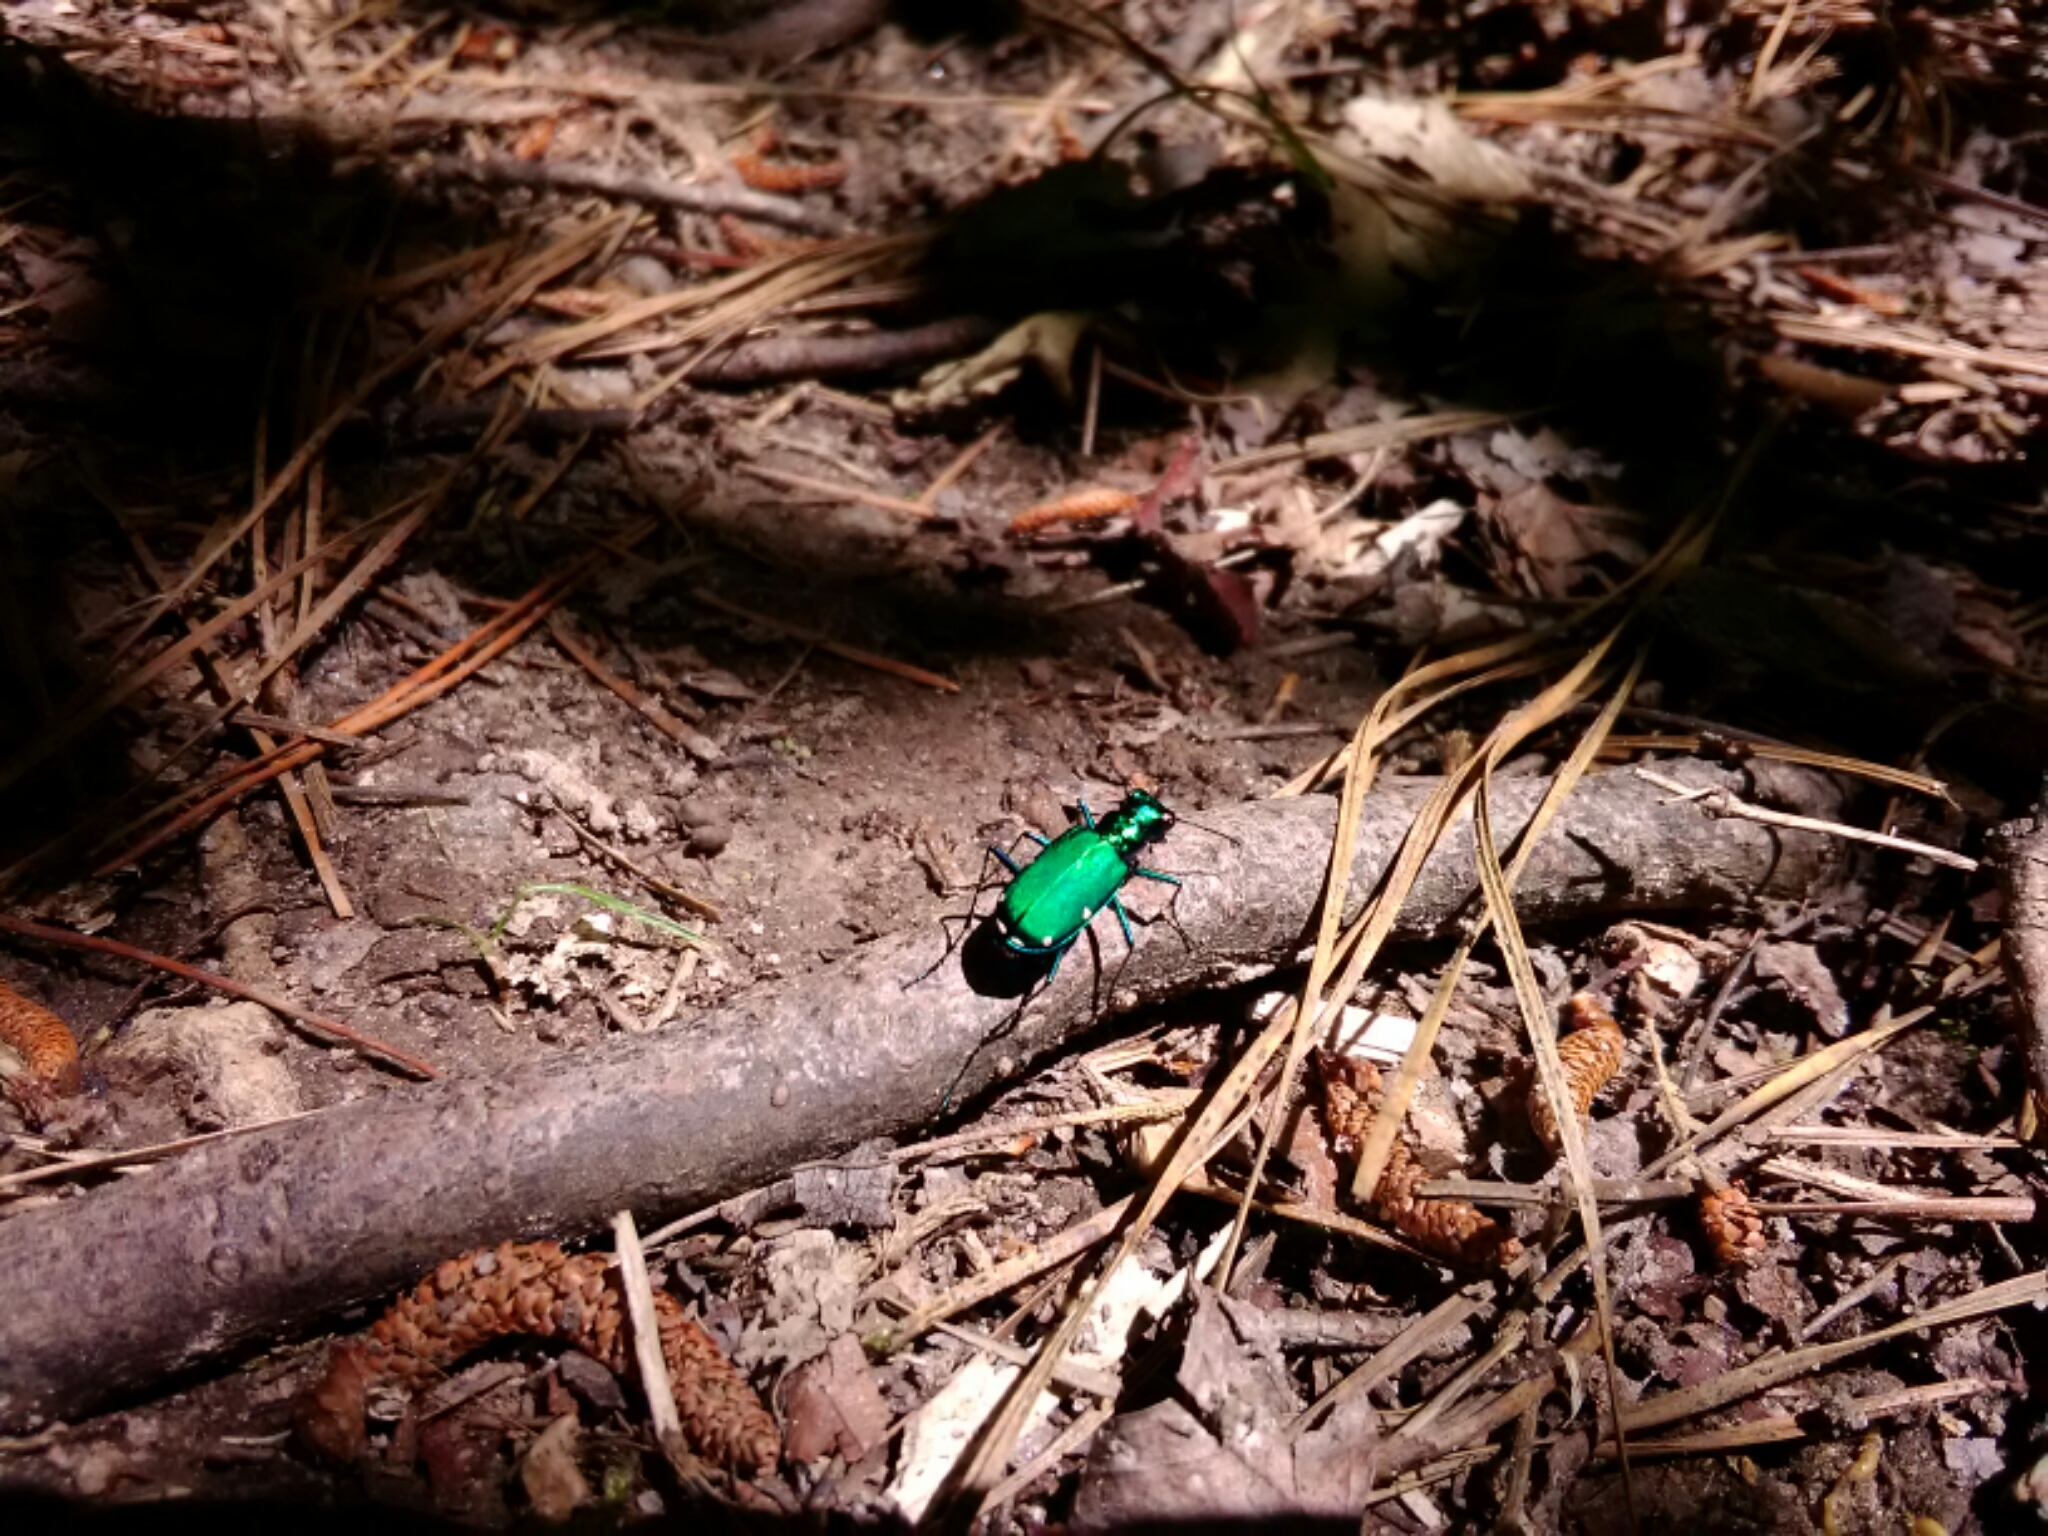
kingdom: Animalia
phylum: Arthropoda
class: Insecta
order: Coleoptera
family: Carabidae
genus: Cicindela
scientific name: Cicindela sexguttata
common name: Six-spotted tiger beetle
